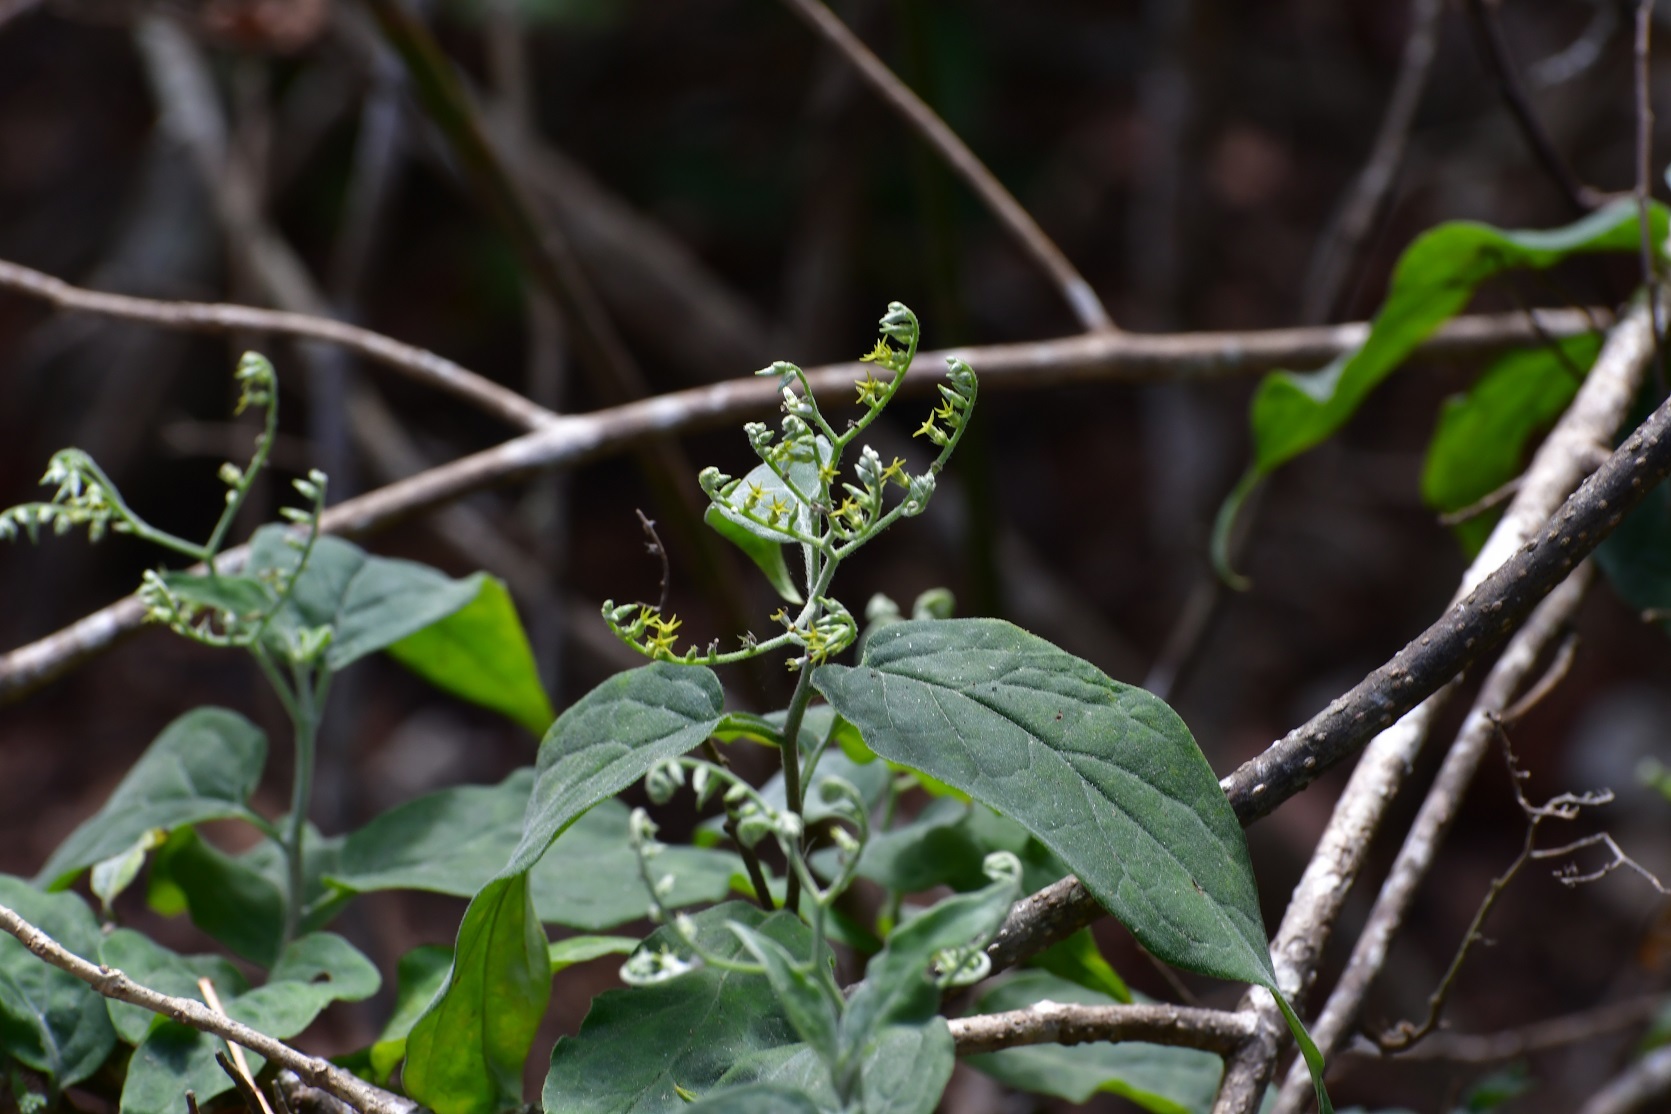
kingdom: Plantae
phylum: Tracheophyta
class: Magnoliopsida
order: Boraginales
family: Heliotropiaceae
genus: Myriopus
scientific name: Myriopus volubilis
